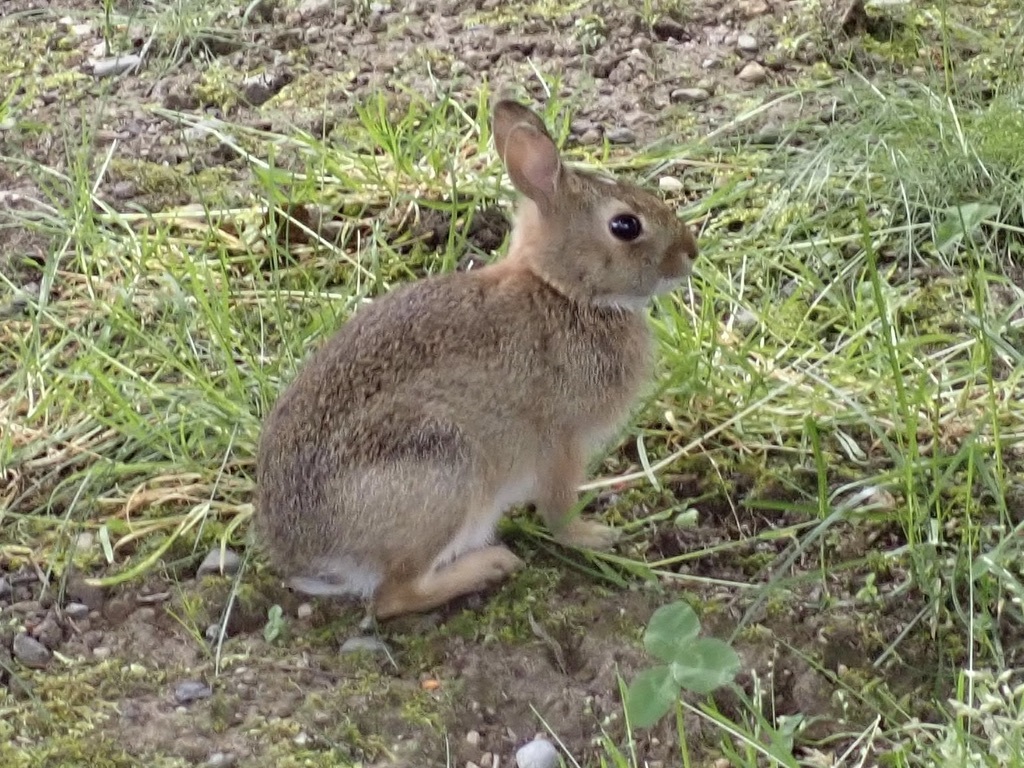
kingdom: Animalia
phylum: Chordata
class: Mammalia
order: Lagomorpha
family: Leporidae
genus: Sylvilagus
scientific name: Sylvilagus floridanus
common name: Eastern cottontail
